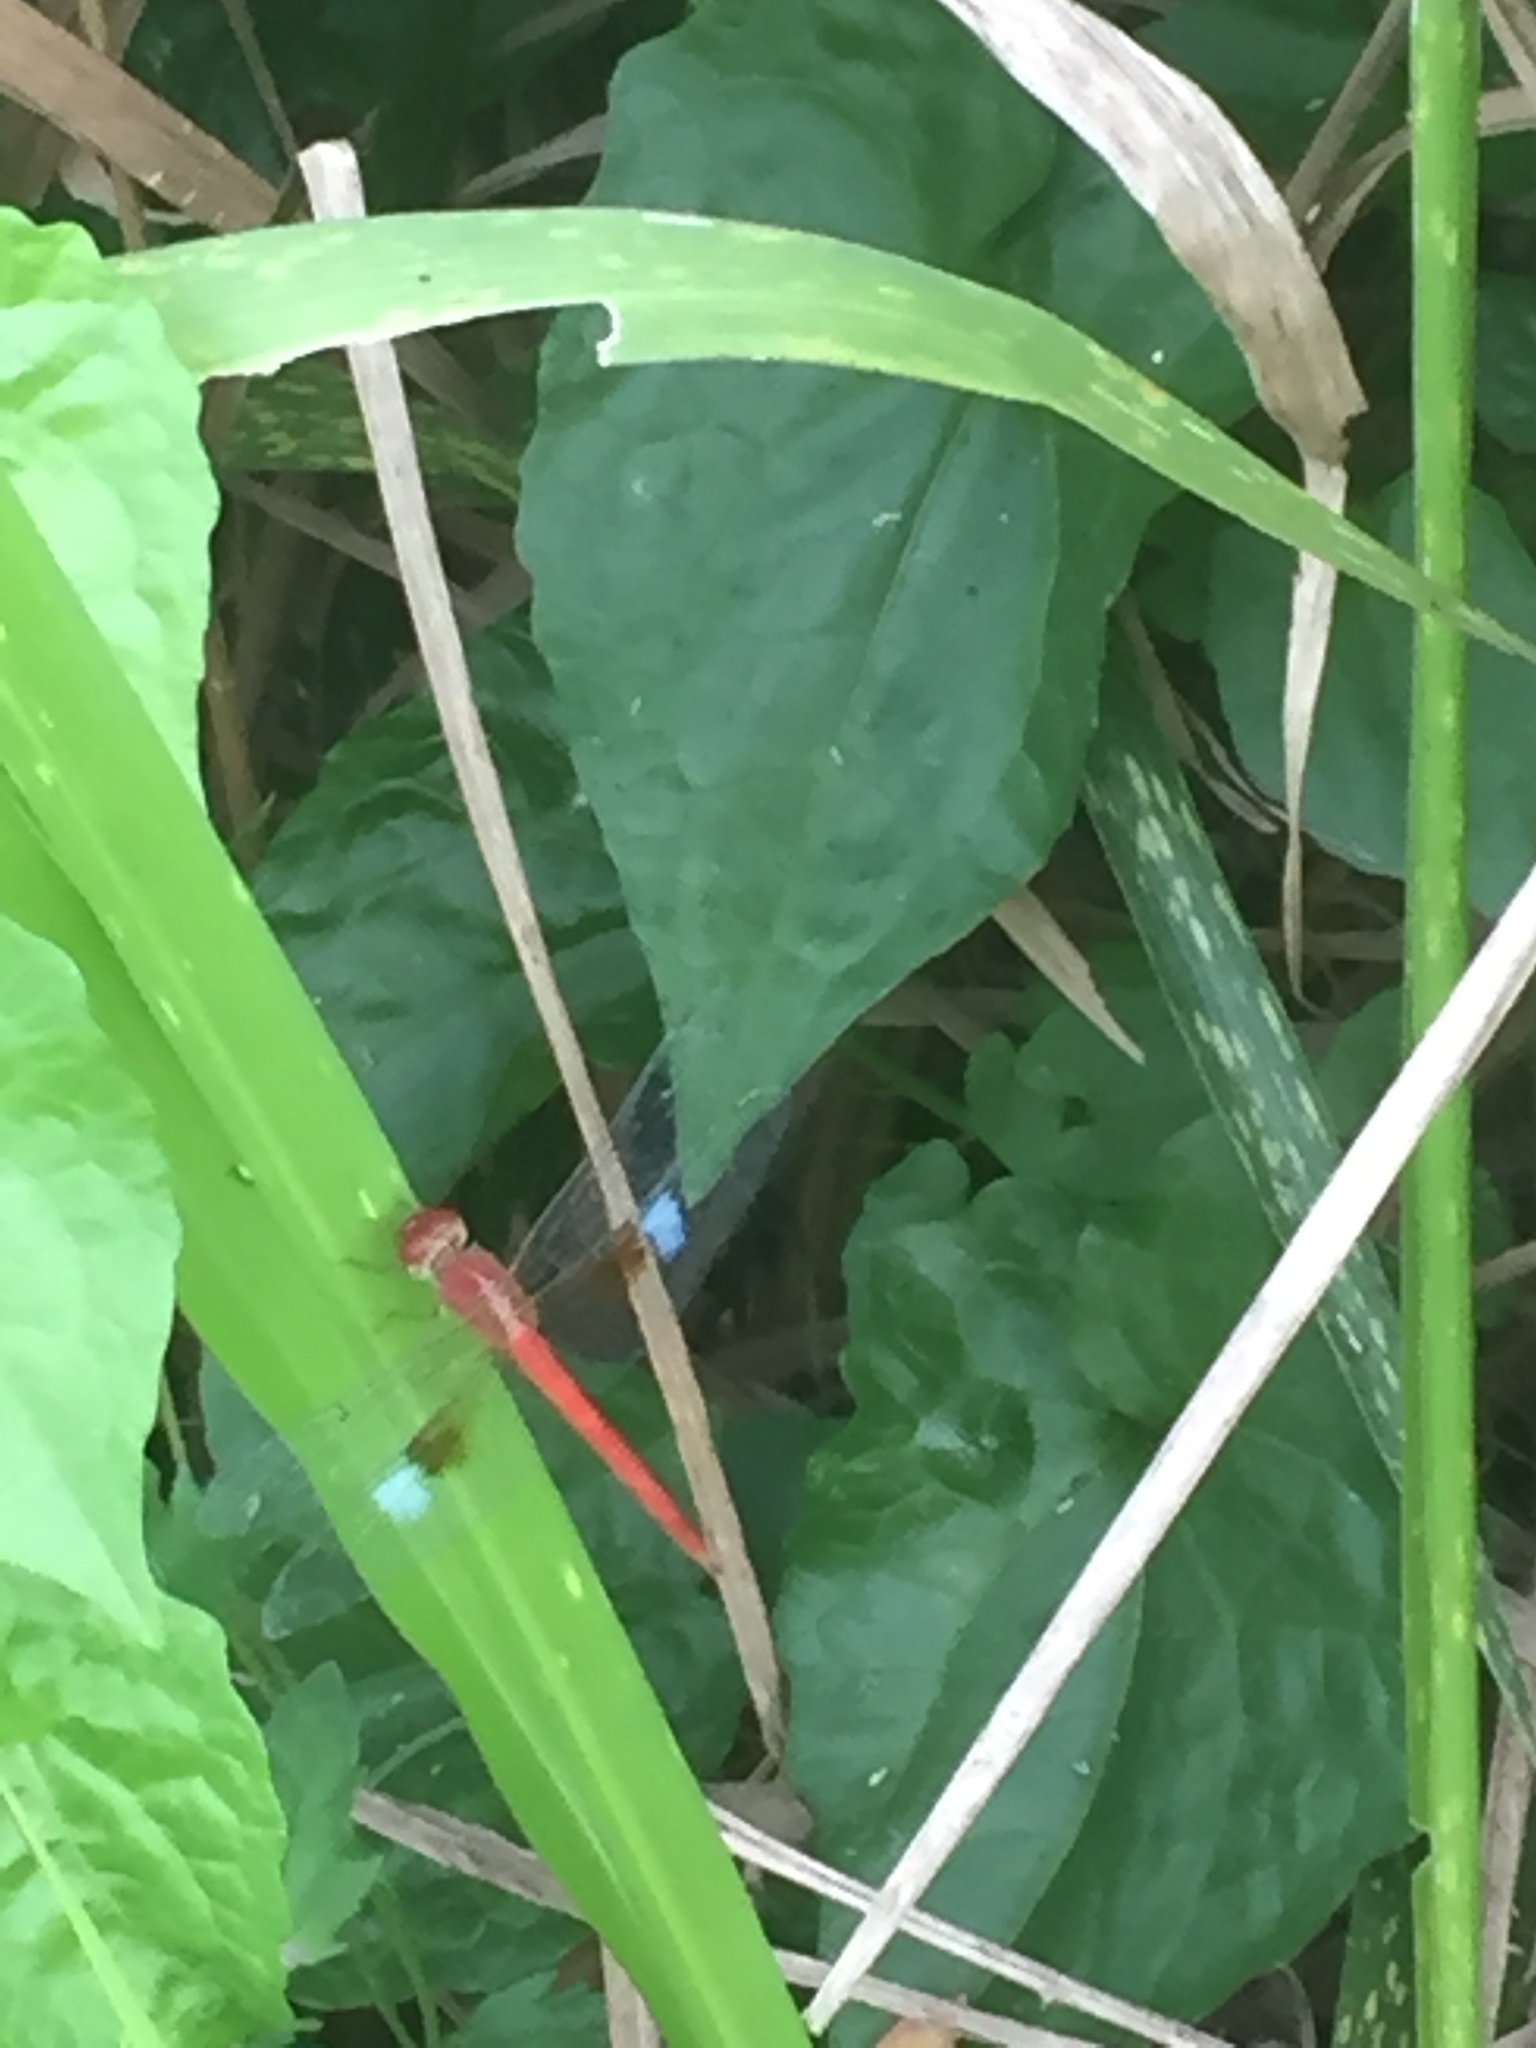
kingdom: Animalia
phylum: Arthropoda
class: Insecta
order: Odonata
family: Libellulidae
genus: Tholymis
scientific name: Tholymis tillarga
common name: Coral-tailed cloud wing
